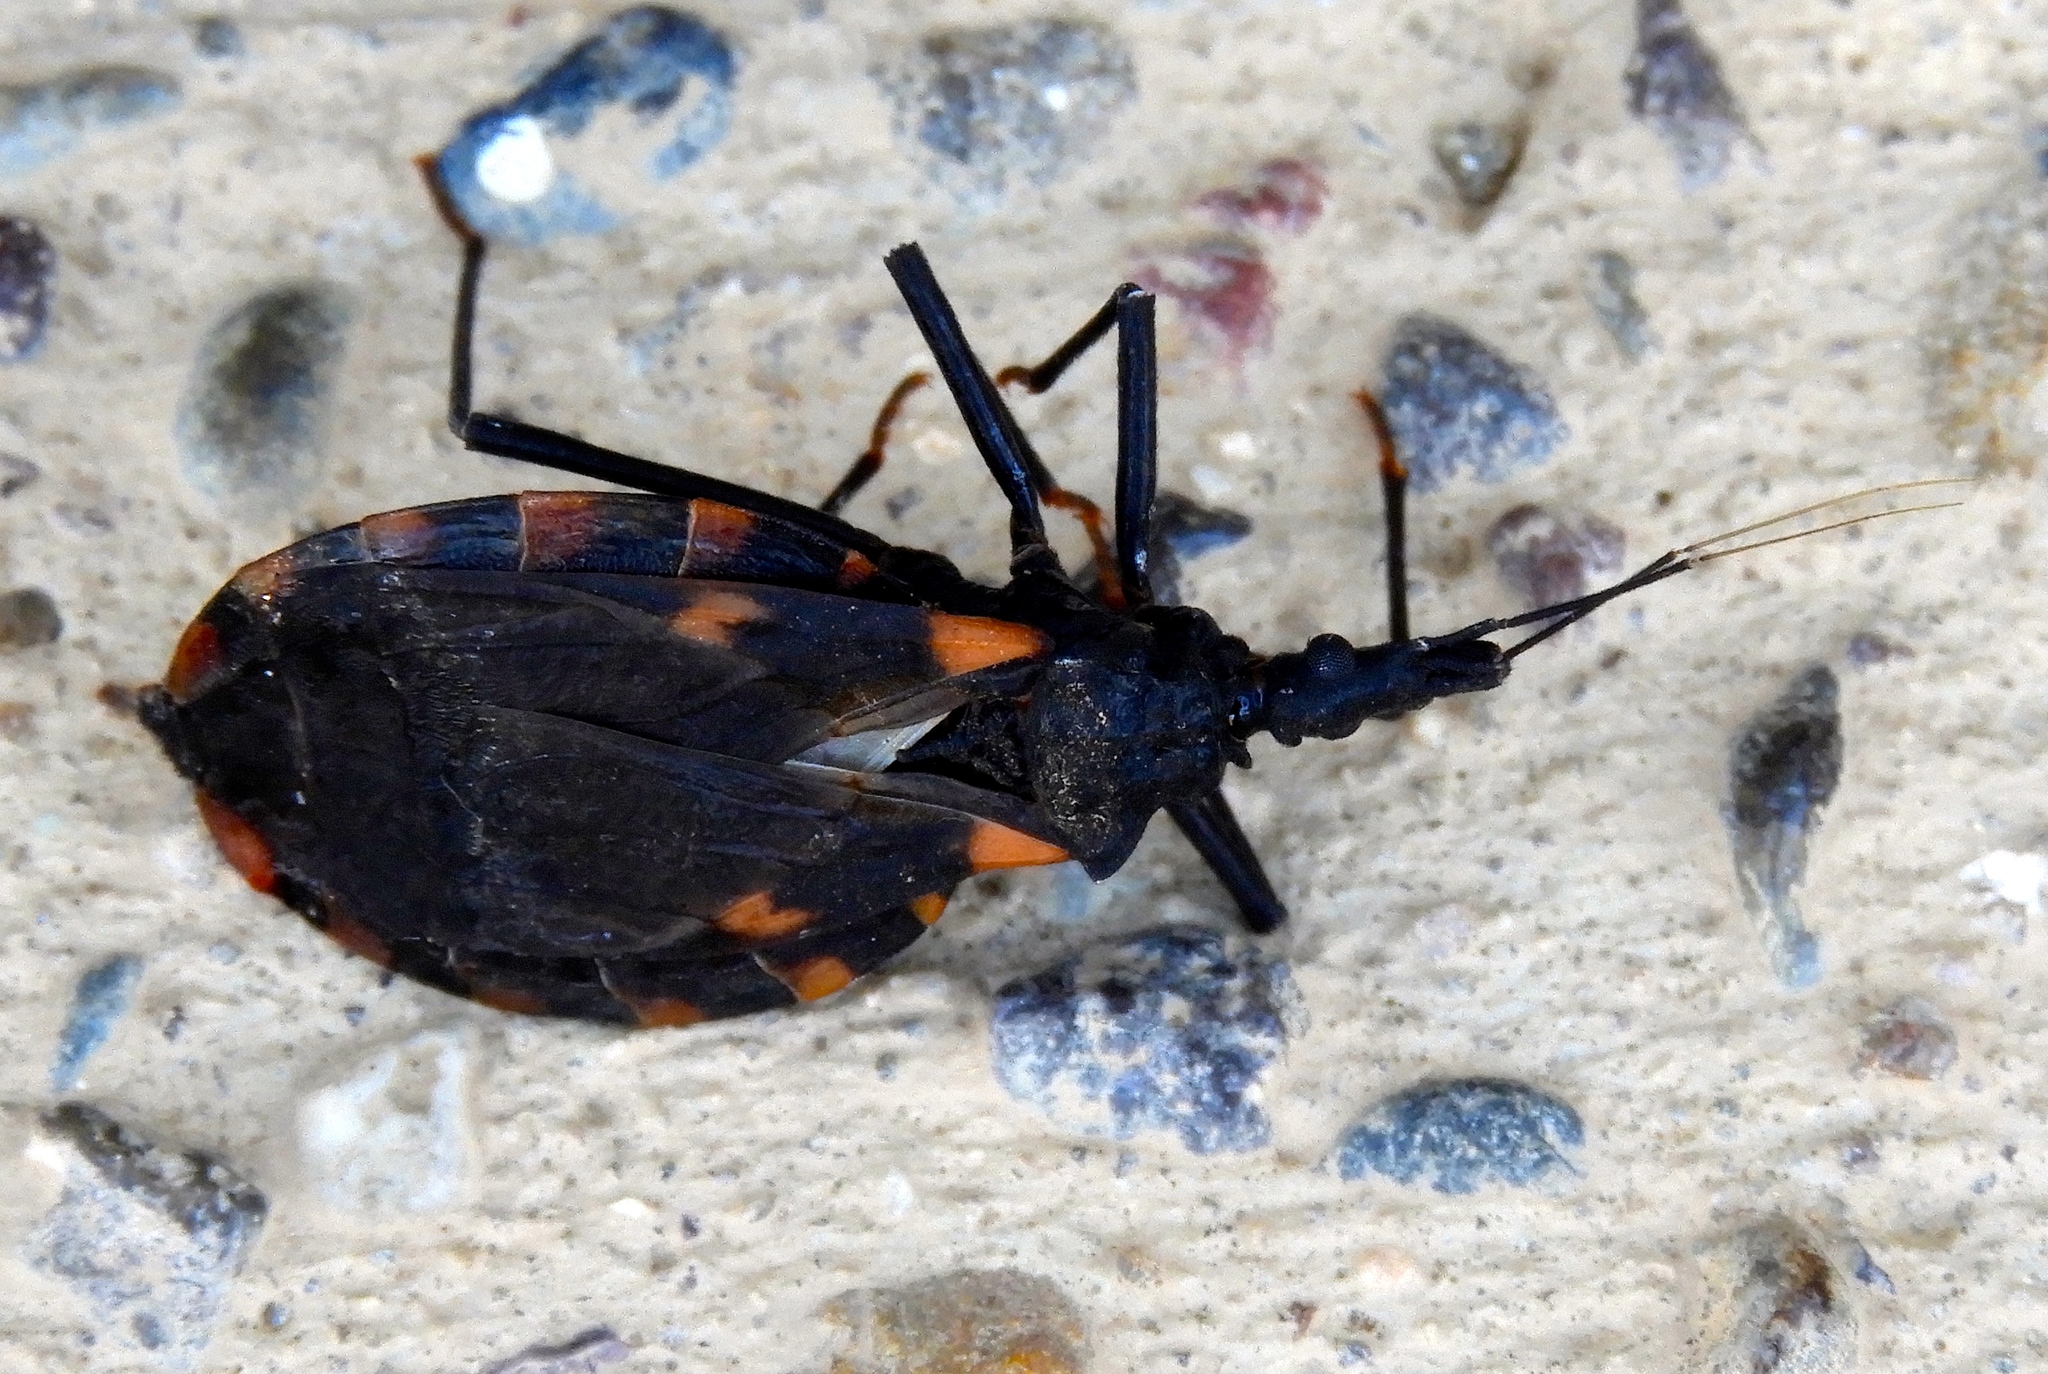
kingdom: Animalia
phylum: Arthropoda
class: Insecta
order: Hemiptera
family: Reduviidae
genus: Meccus
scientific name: Meccus longipennis
